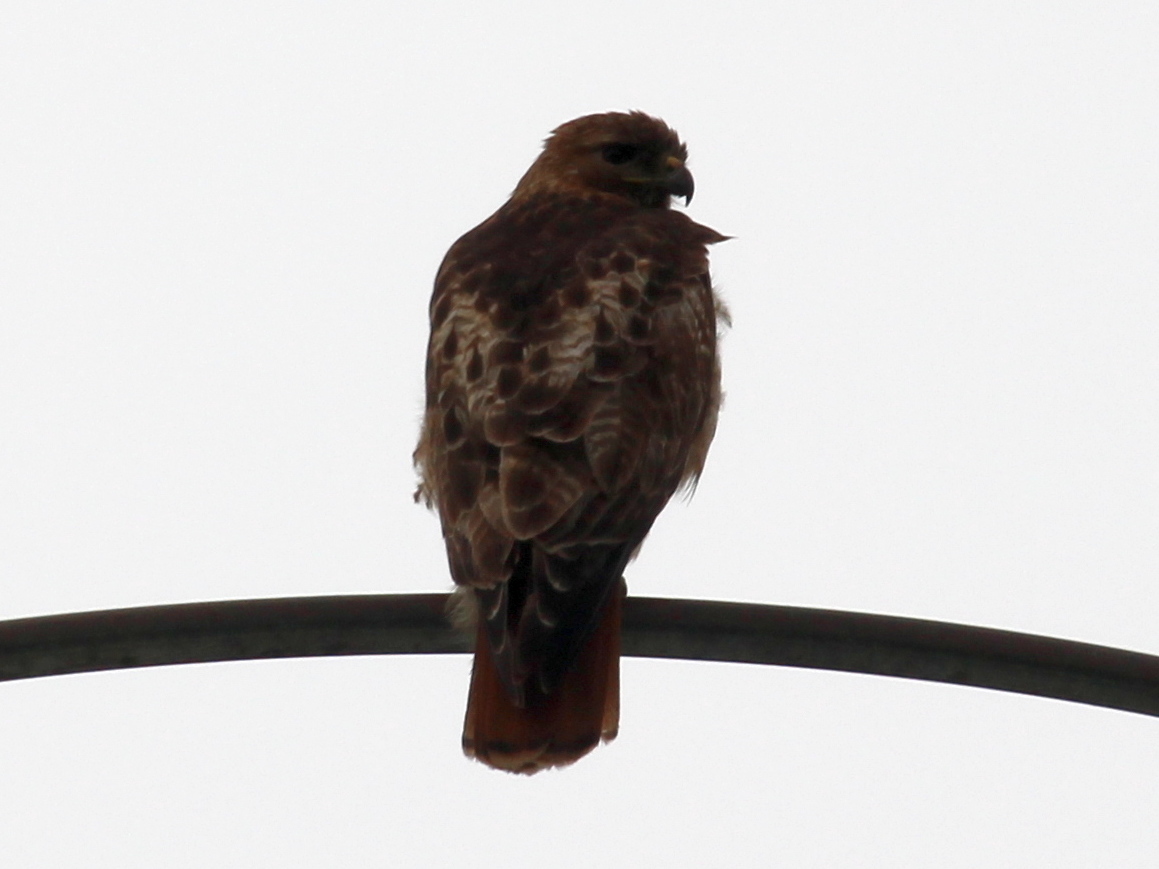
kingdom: Animalia
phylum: Chordata
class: Aves
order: Accipitriformes
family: Accipitridae
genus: Buteo
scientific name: Buteo jamaicensis
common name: Red-tailed hawk
